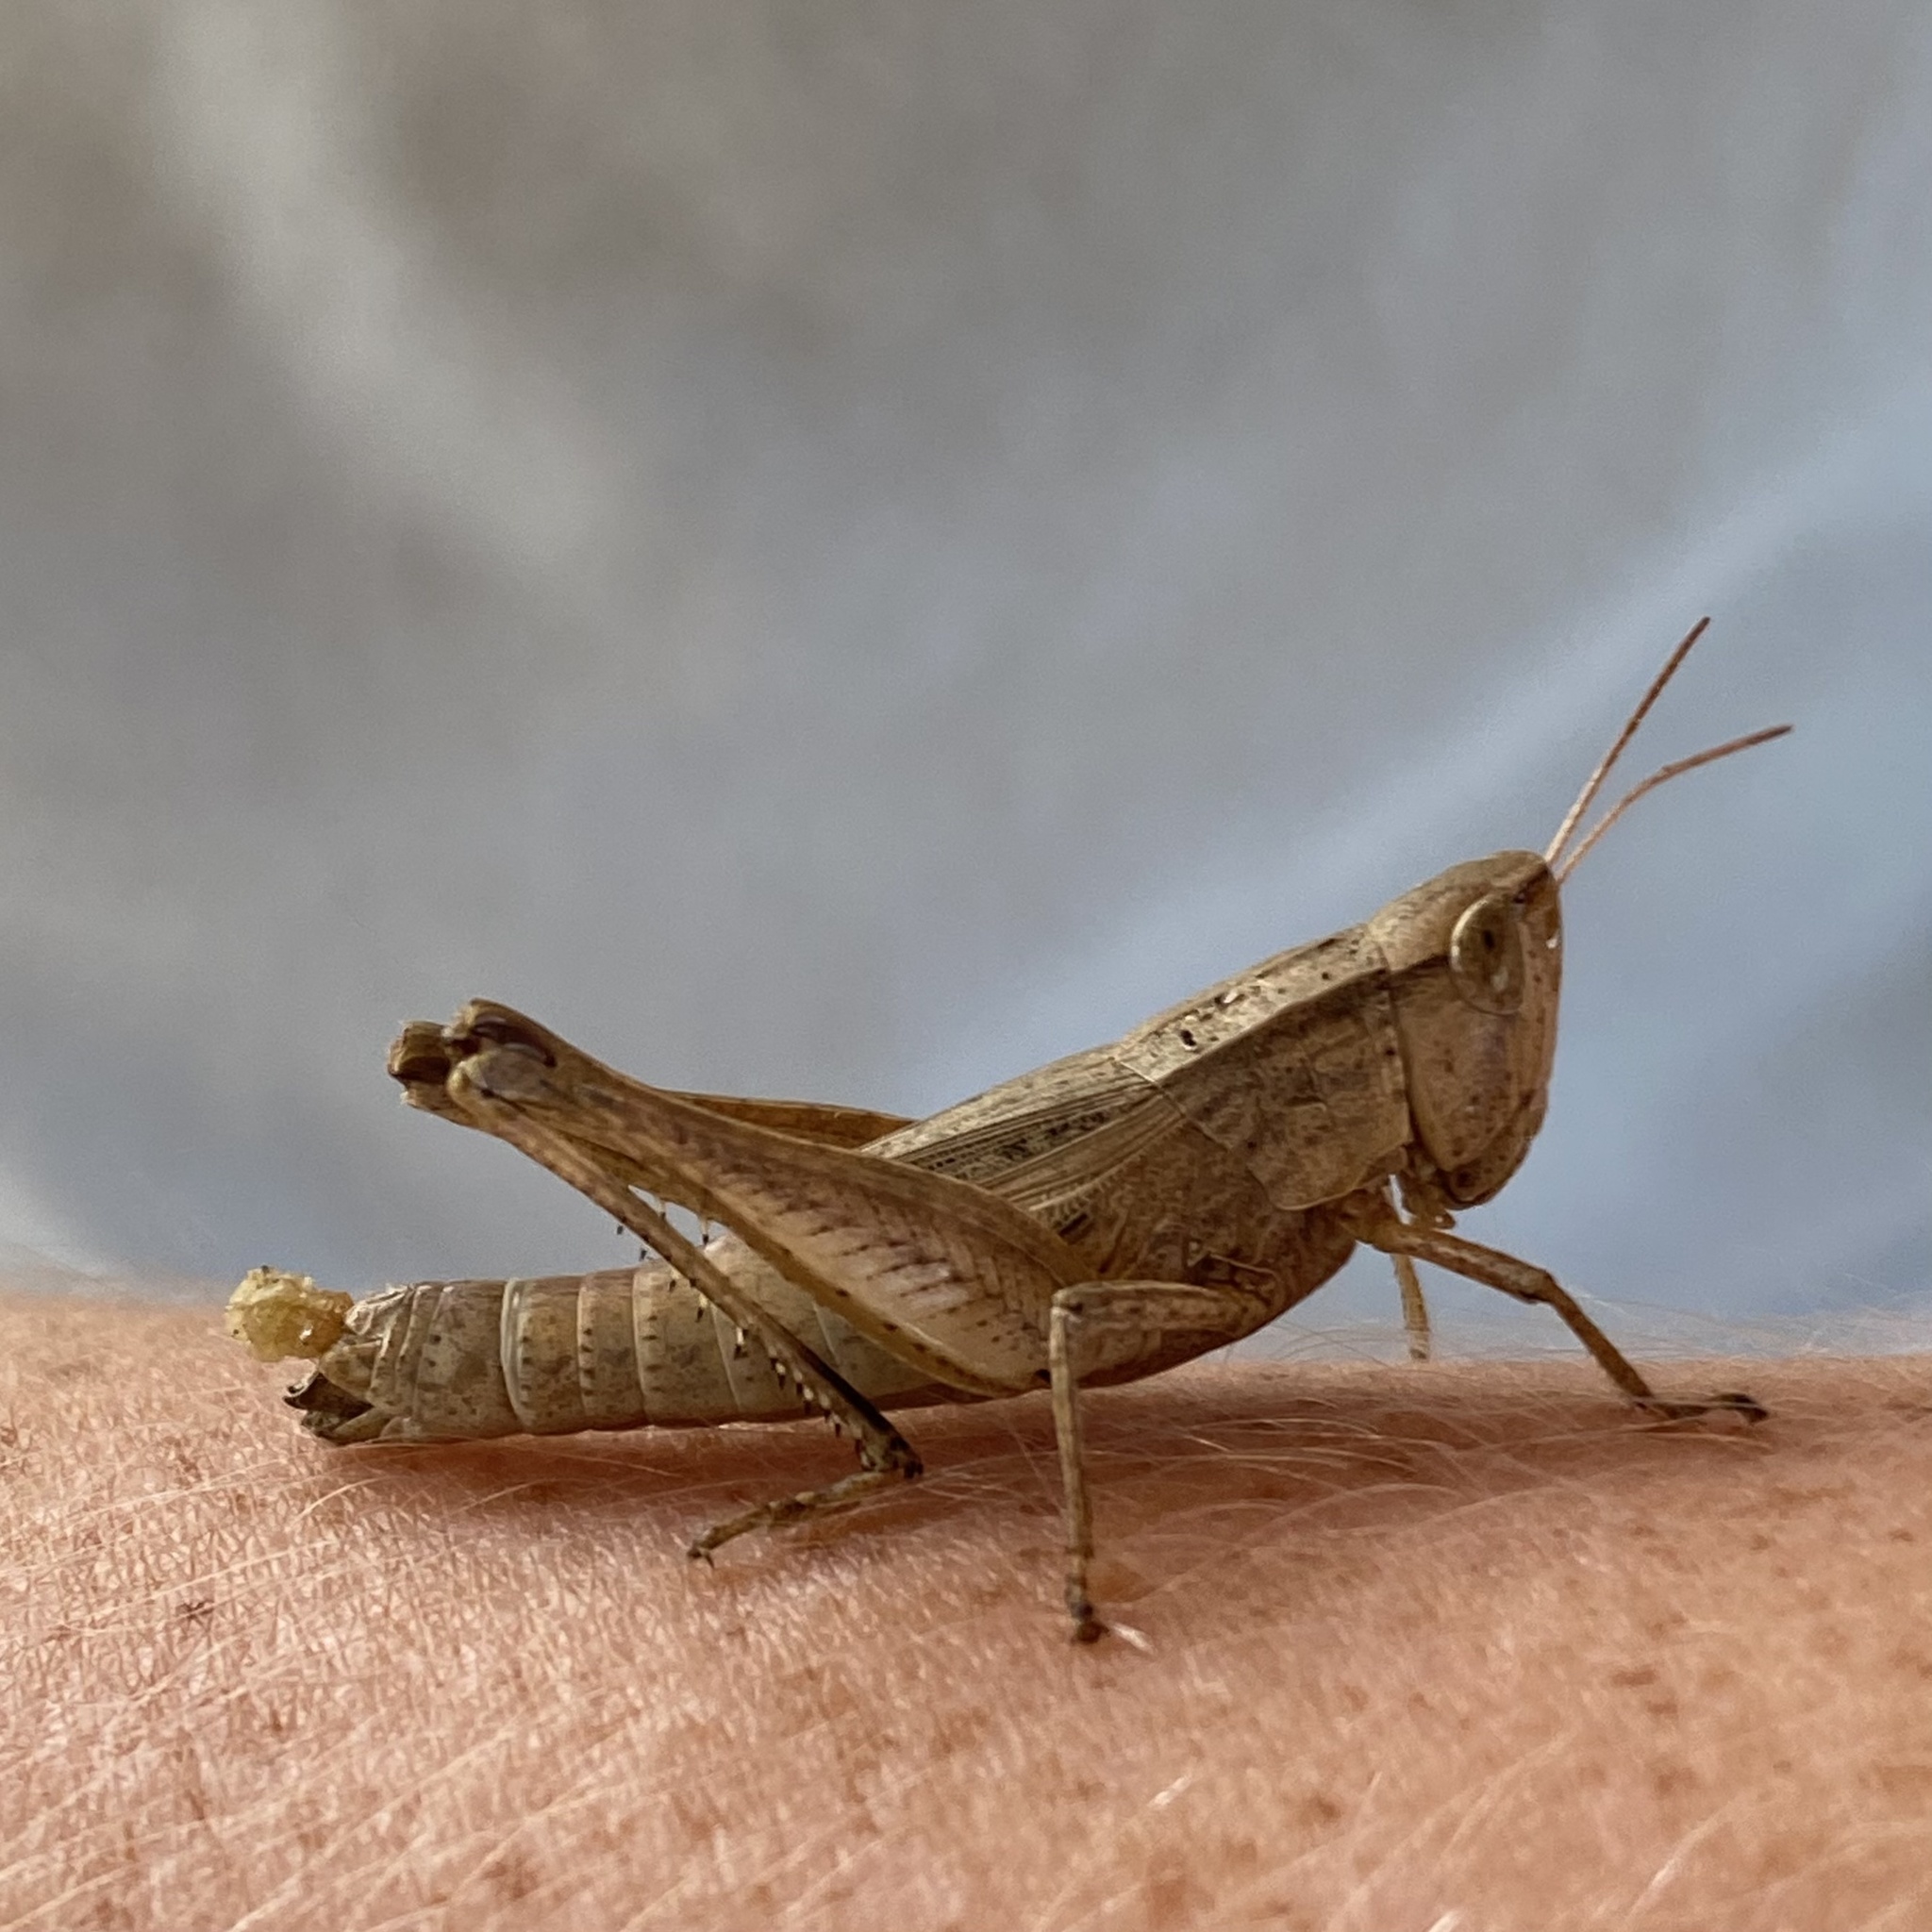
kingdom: Animalia
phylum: Arthropoda
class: Insecta
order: Orthoptera
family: Acrididae
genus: Dichromorpha
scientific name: Dichromorpha viridis
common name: Short-winged green grasshopper
